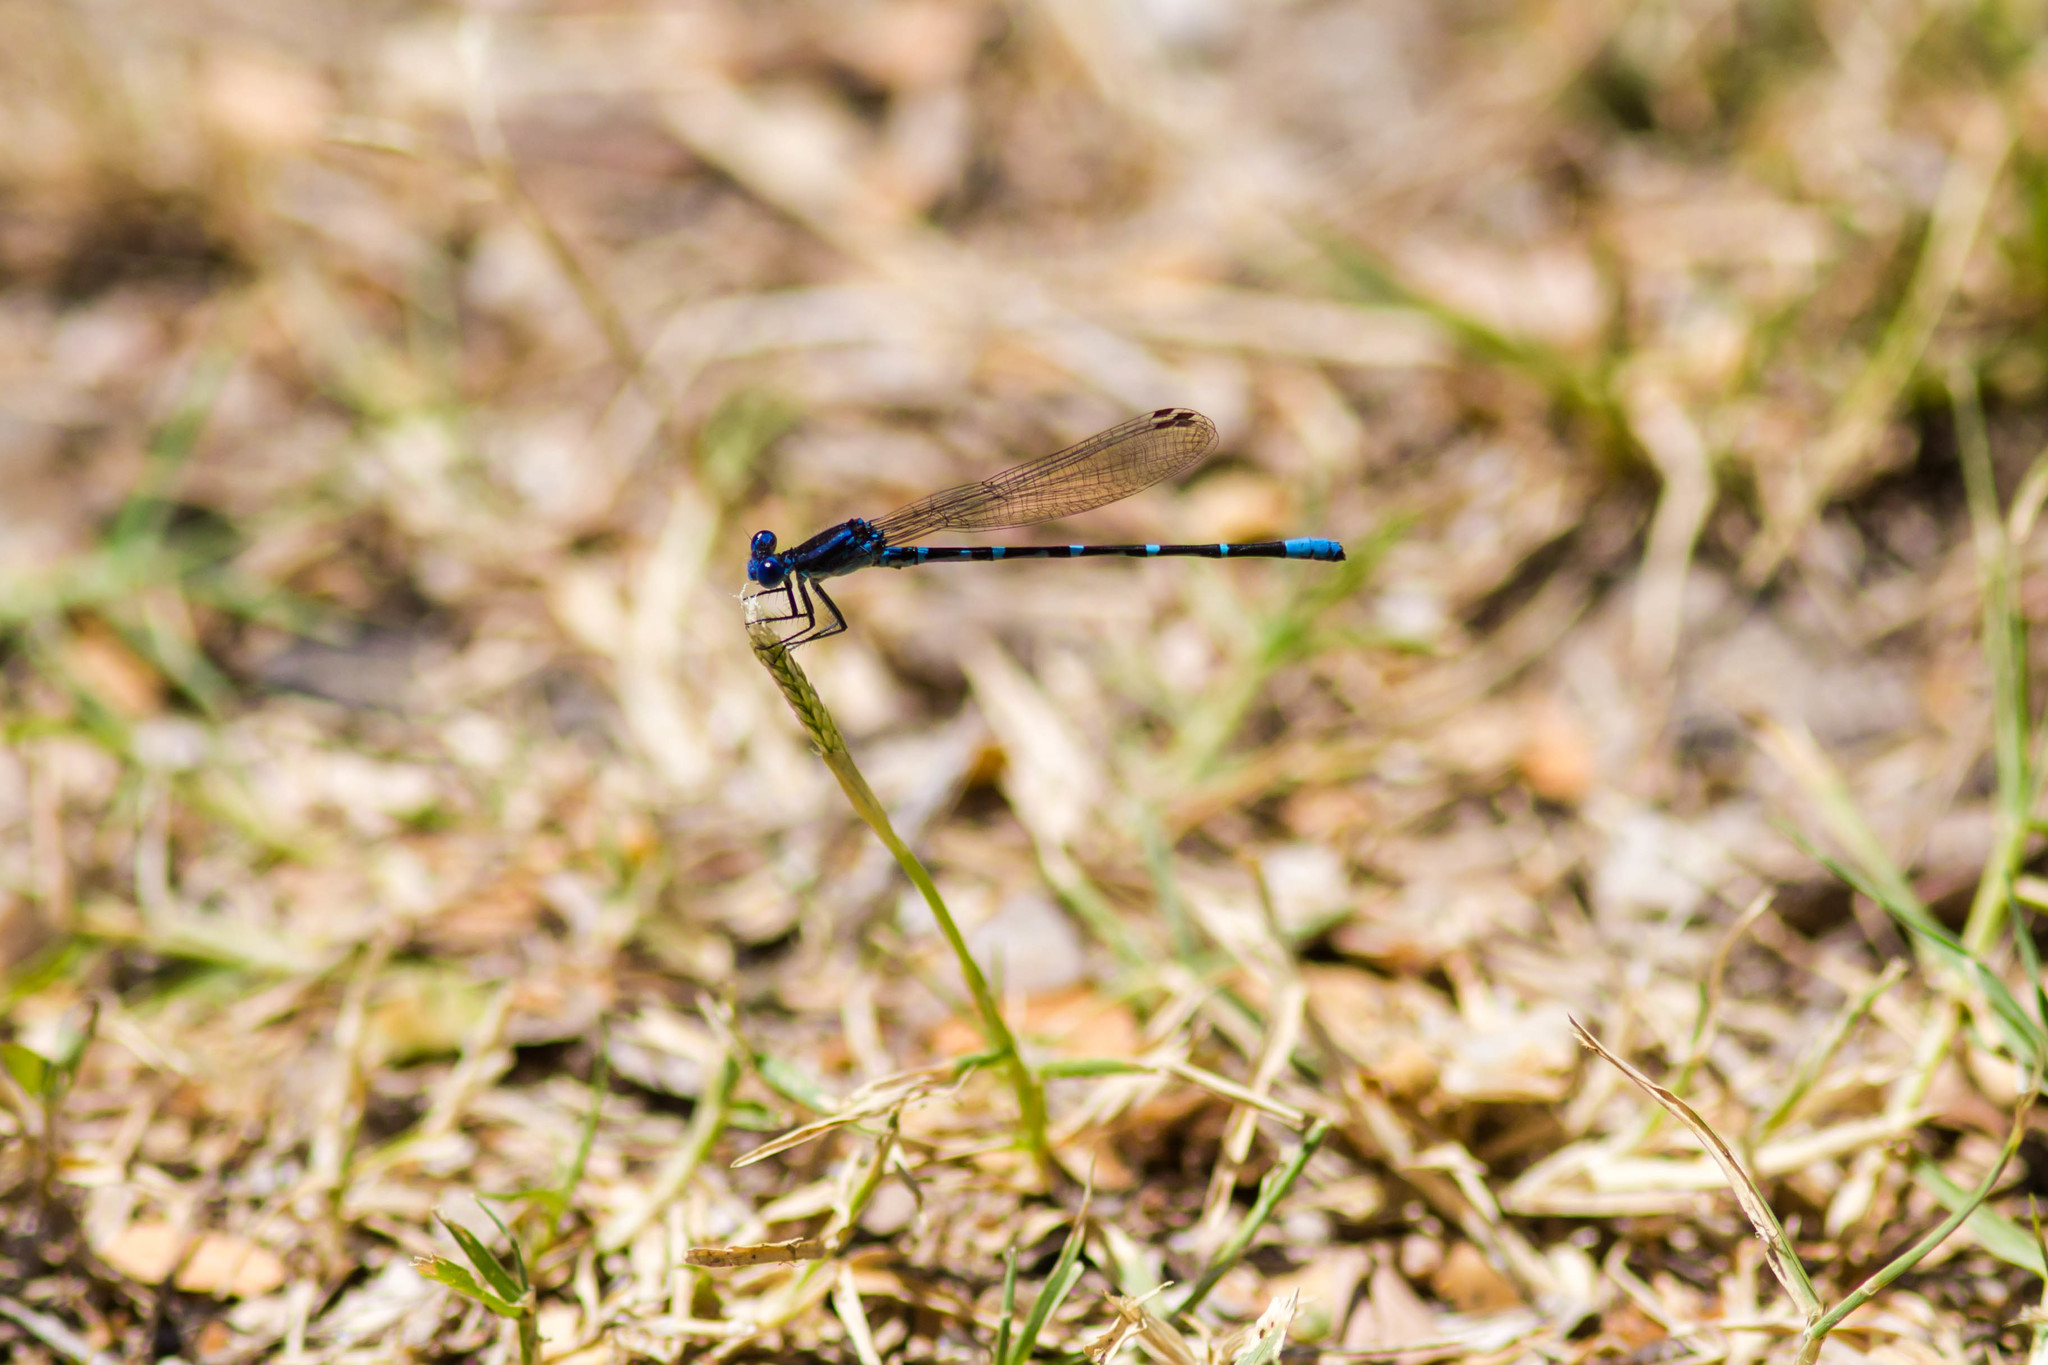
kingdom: Animalia
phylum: Arthropoda
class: Insecta
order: Odonata
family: Coenagrionidae
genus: Argia
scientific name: Argia sedula
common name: Blue-ringed dancer
